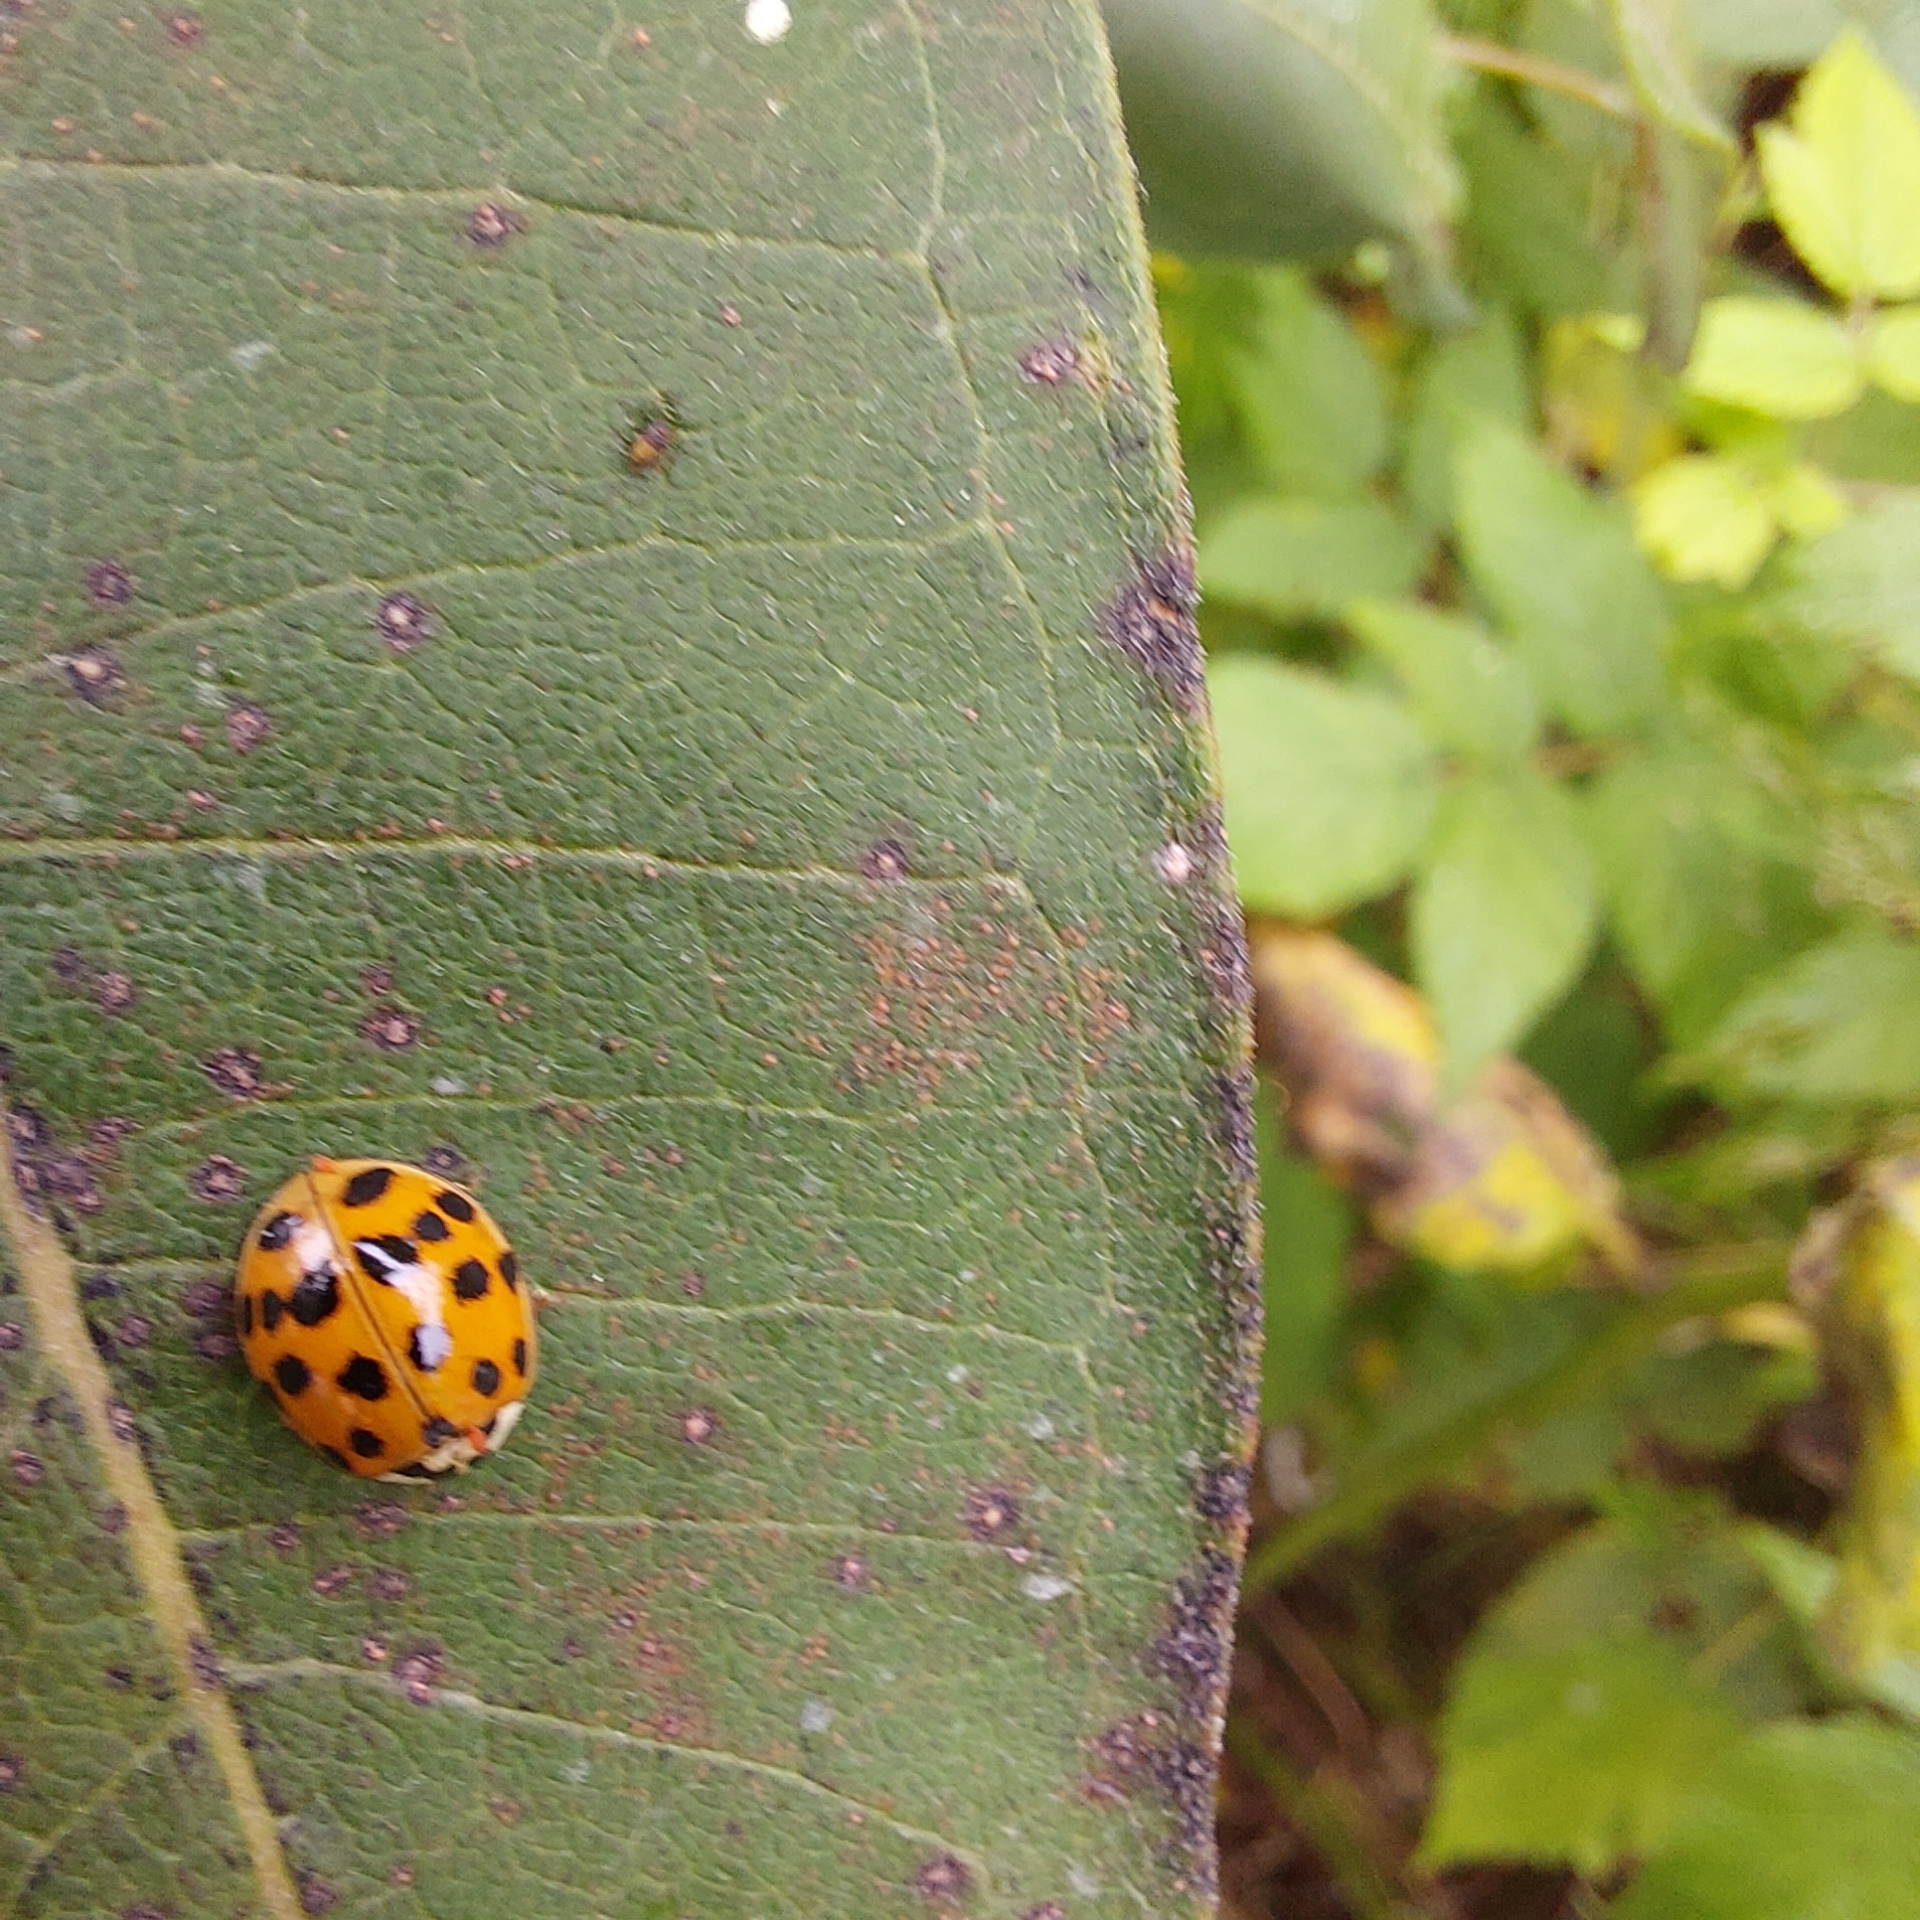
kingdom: Animalia
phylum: Arthropoda
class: Insecta
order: Coleoptera
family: Coccinellidae
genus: Harmonia
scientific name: Harmonia axyridis
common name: Harlequin ladybird
